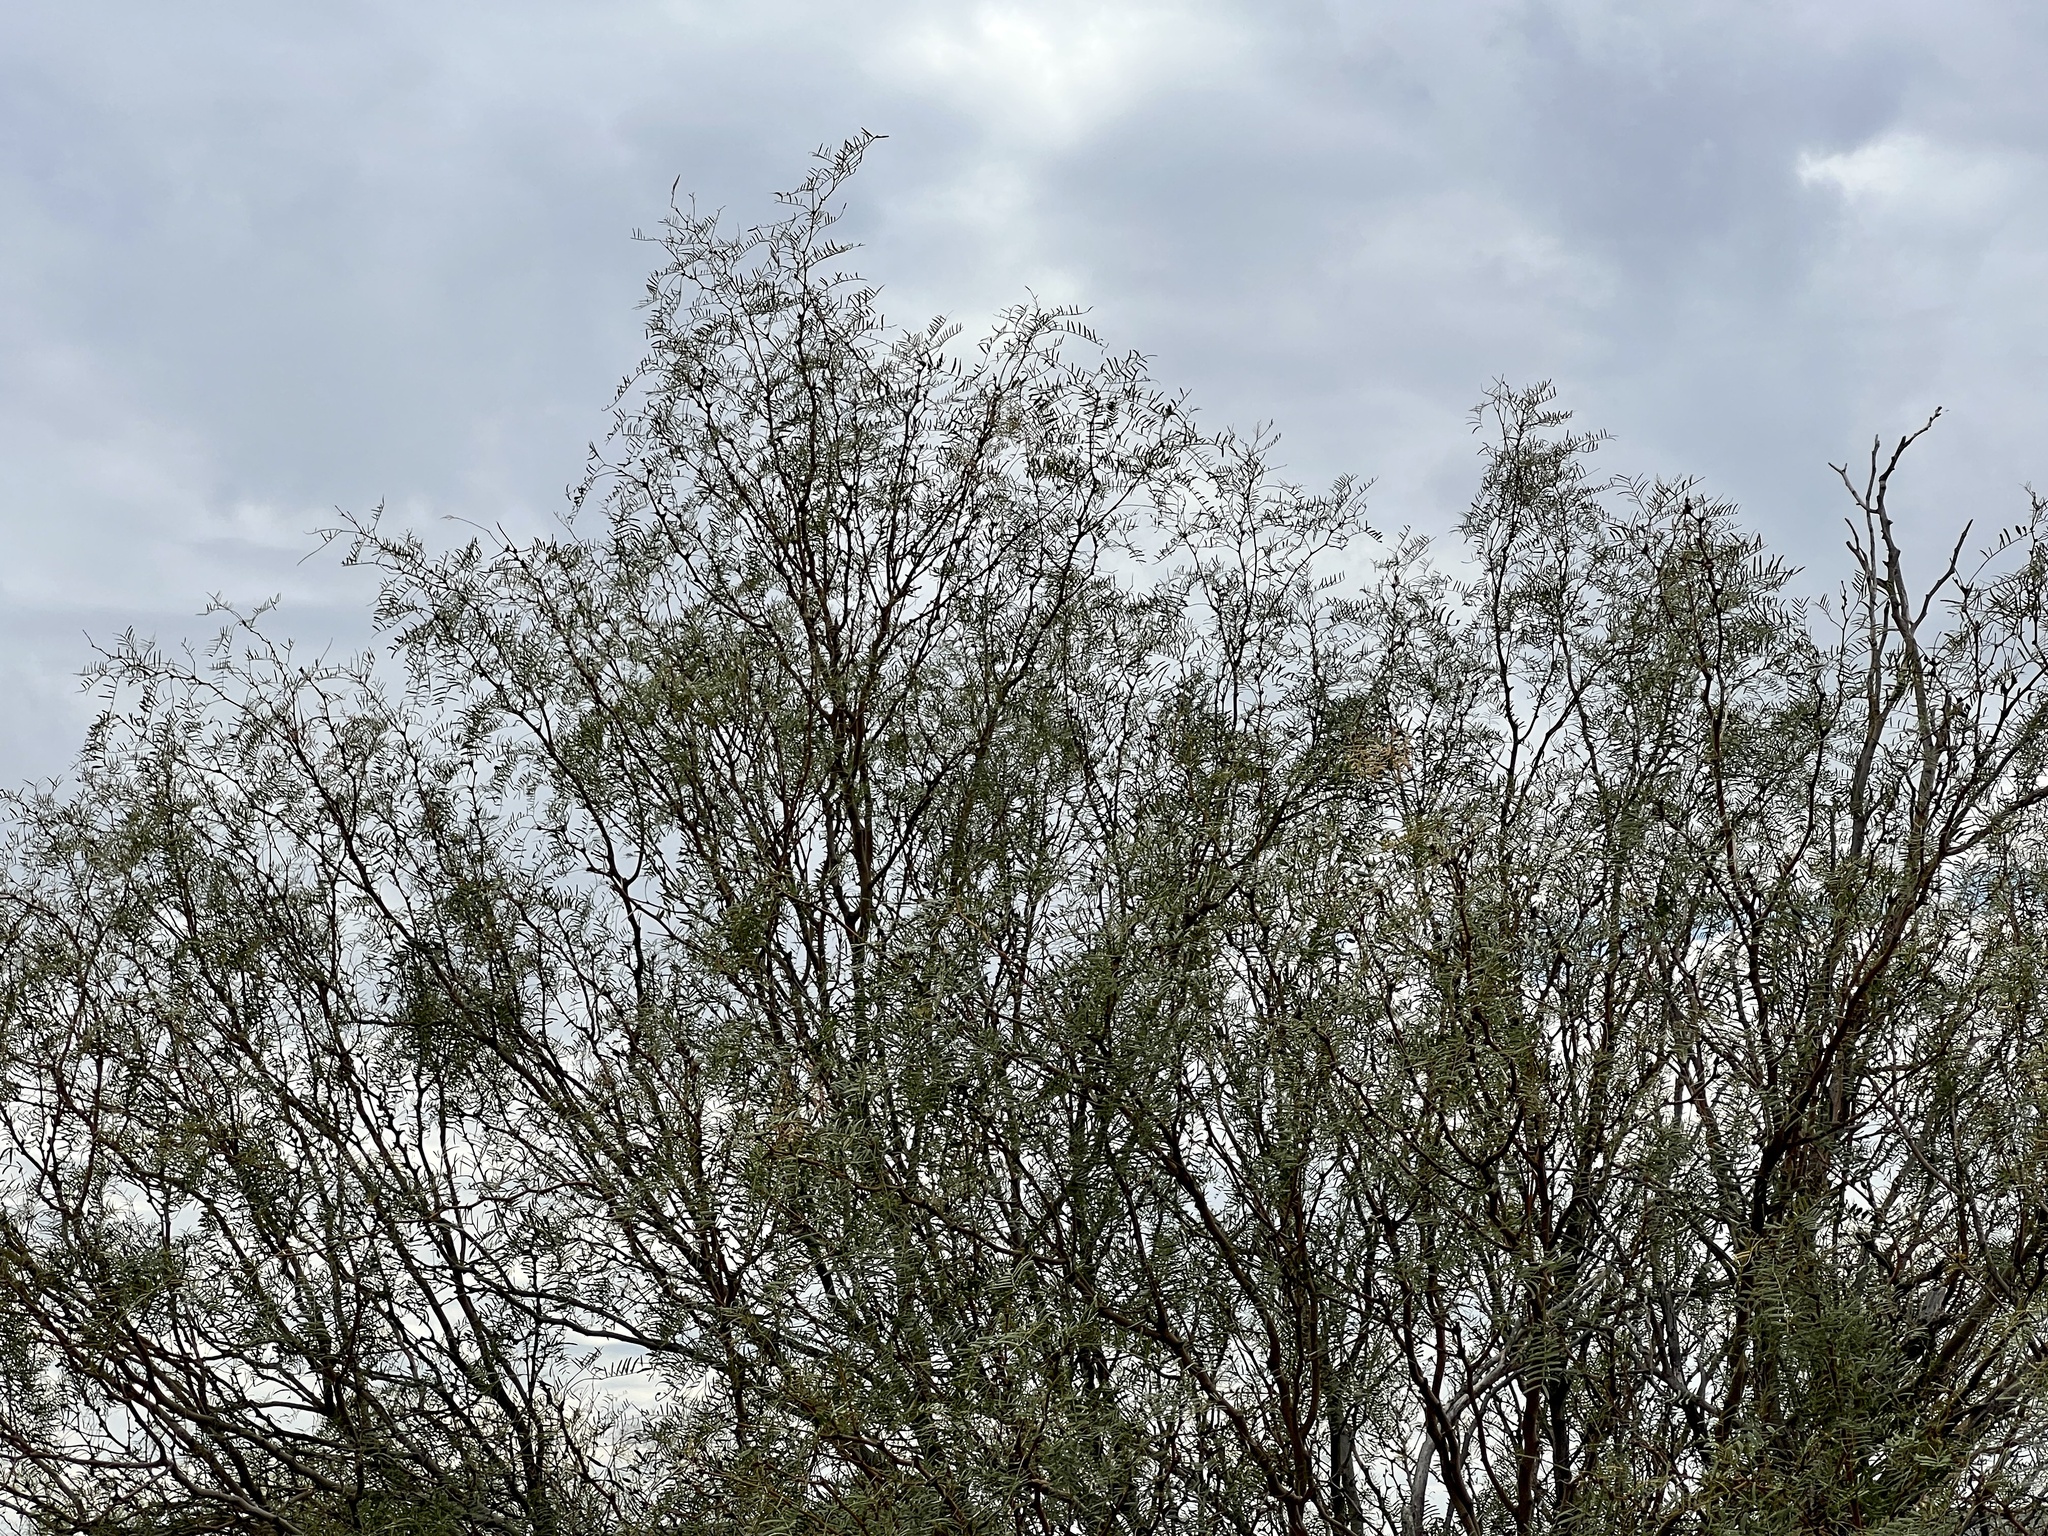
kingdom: Plantae
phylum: Tracheophyta
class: Magnoliopsida
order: Fabales
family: Fabaceae
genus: Prosopis
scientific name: Prosopis glandulosa
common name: Honey mesquite
